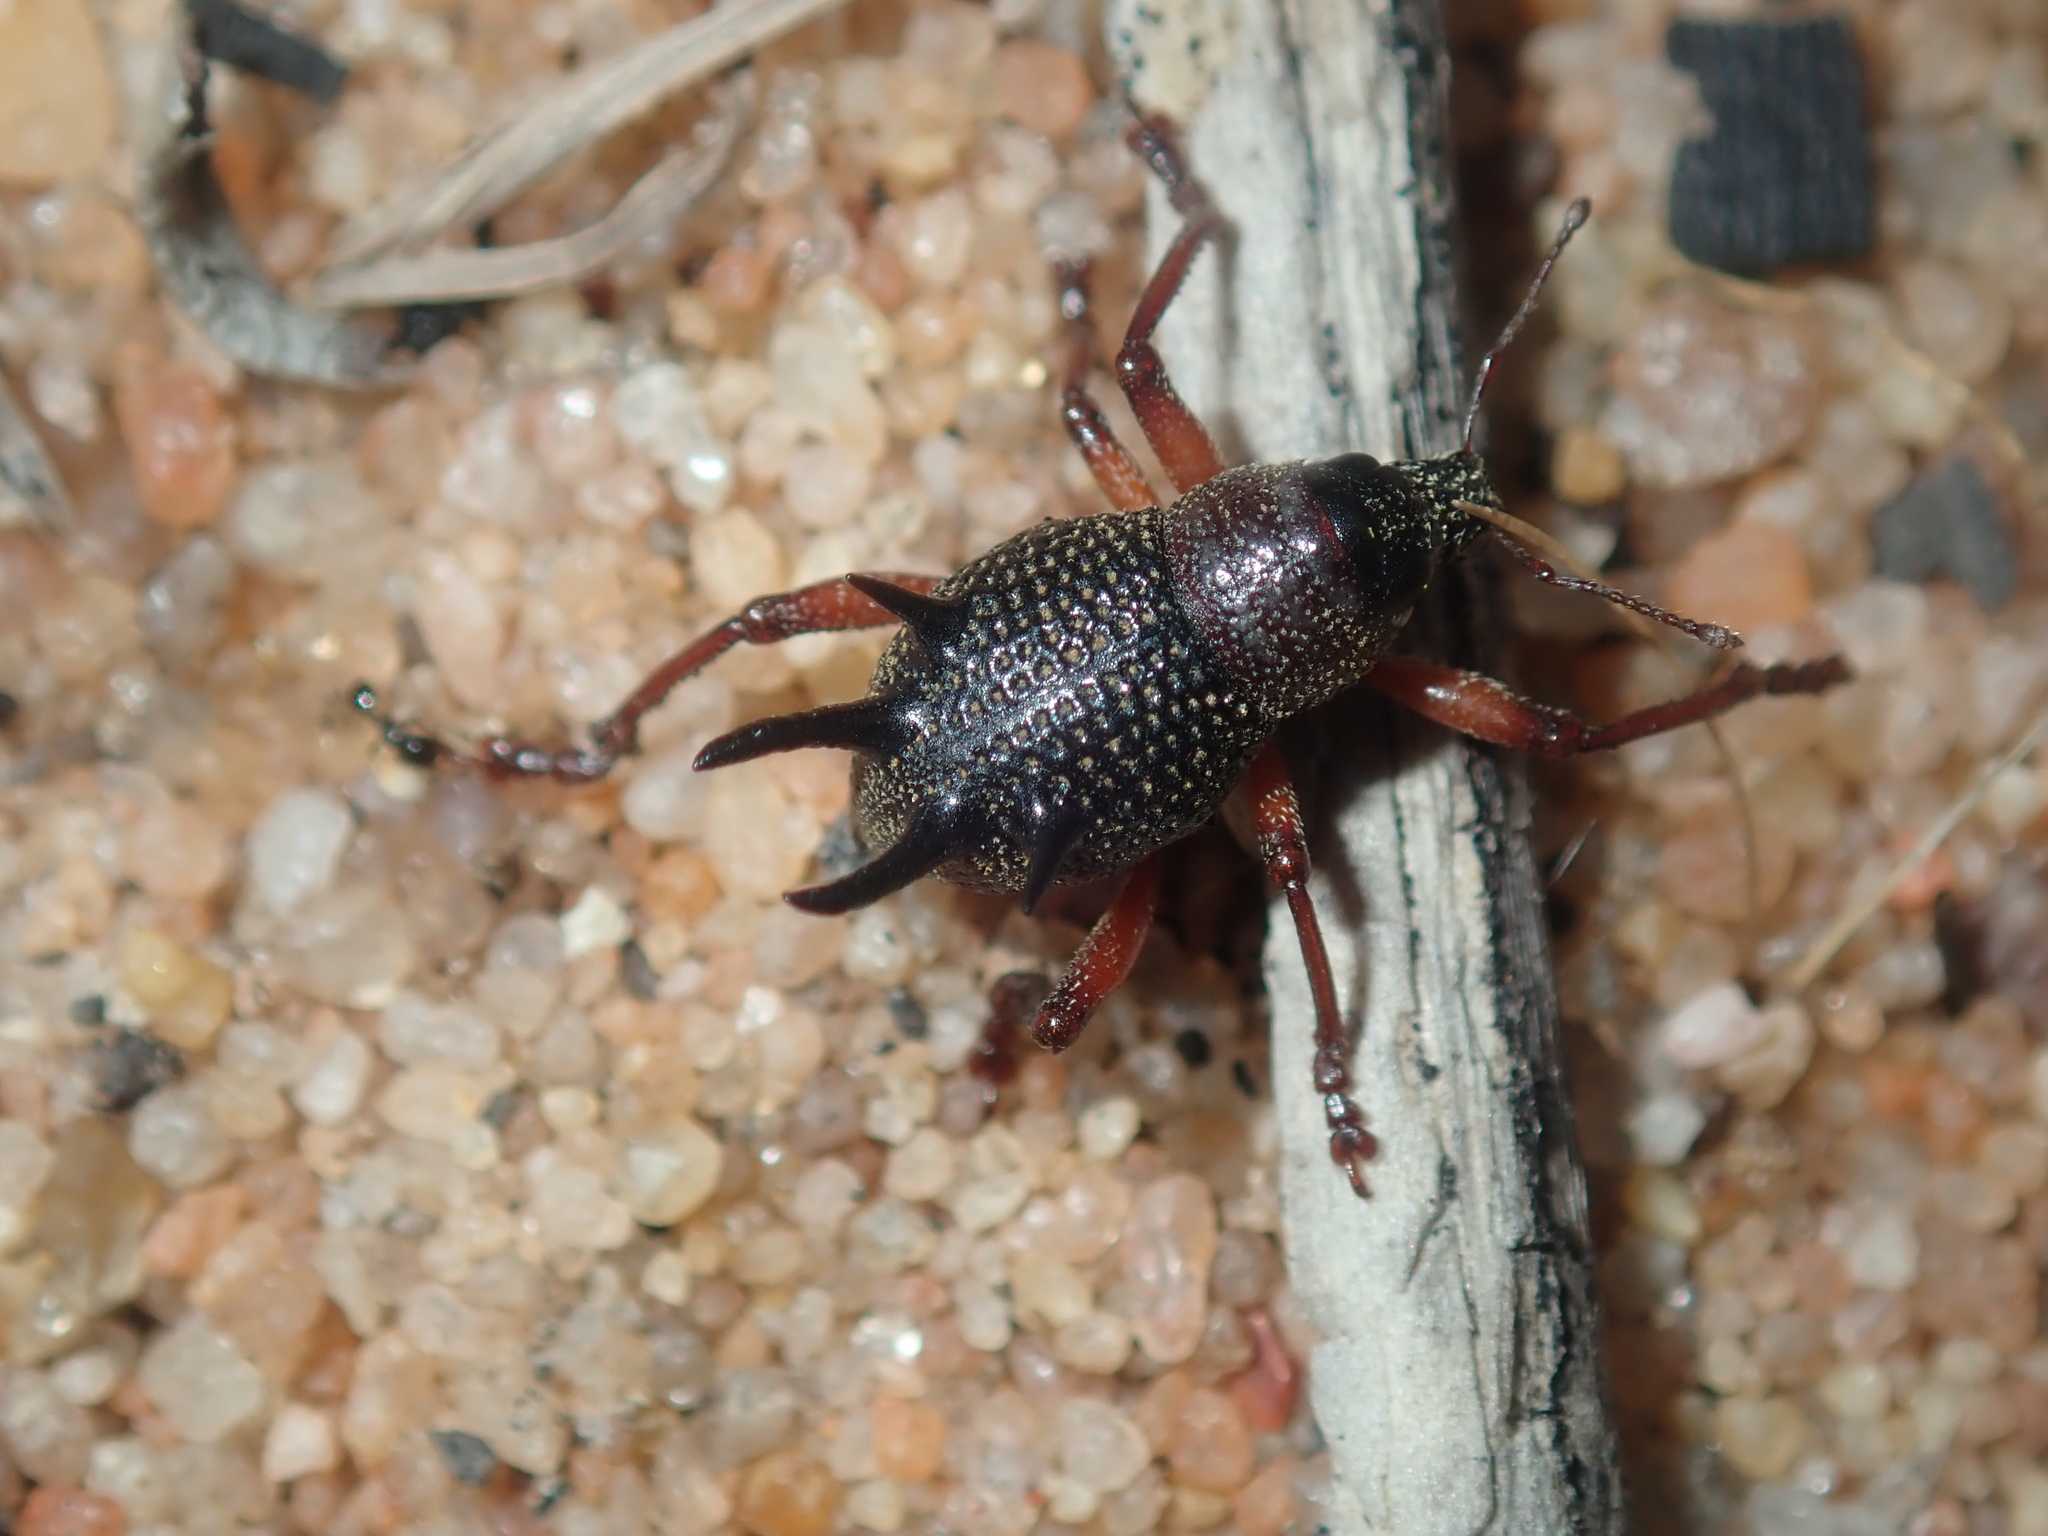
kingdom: Animalia
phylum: Arthropoda
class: Insecta
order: Coleoptera
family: Curculionidae
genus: Catasarcus
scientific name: Catasarcus albipectus
